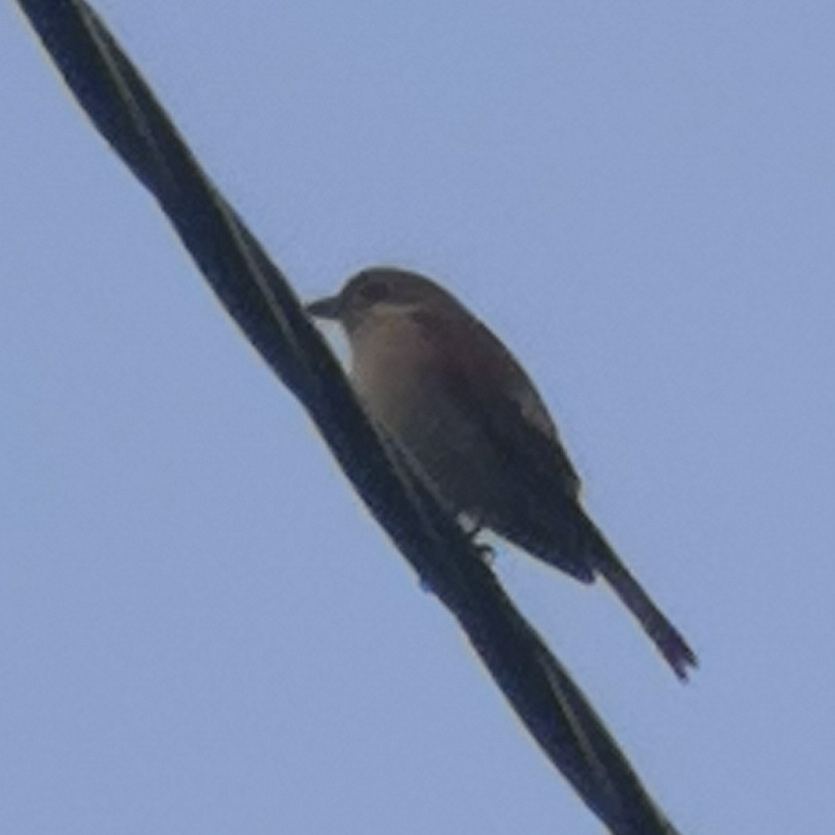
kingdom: Animalia
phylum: Chordata
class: Aves
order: Passeriformes
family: Laniidae
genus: Lanius
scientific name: Lanius collurio
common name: Red-backed shrike
